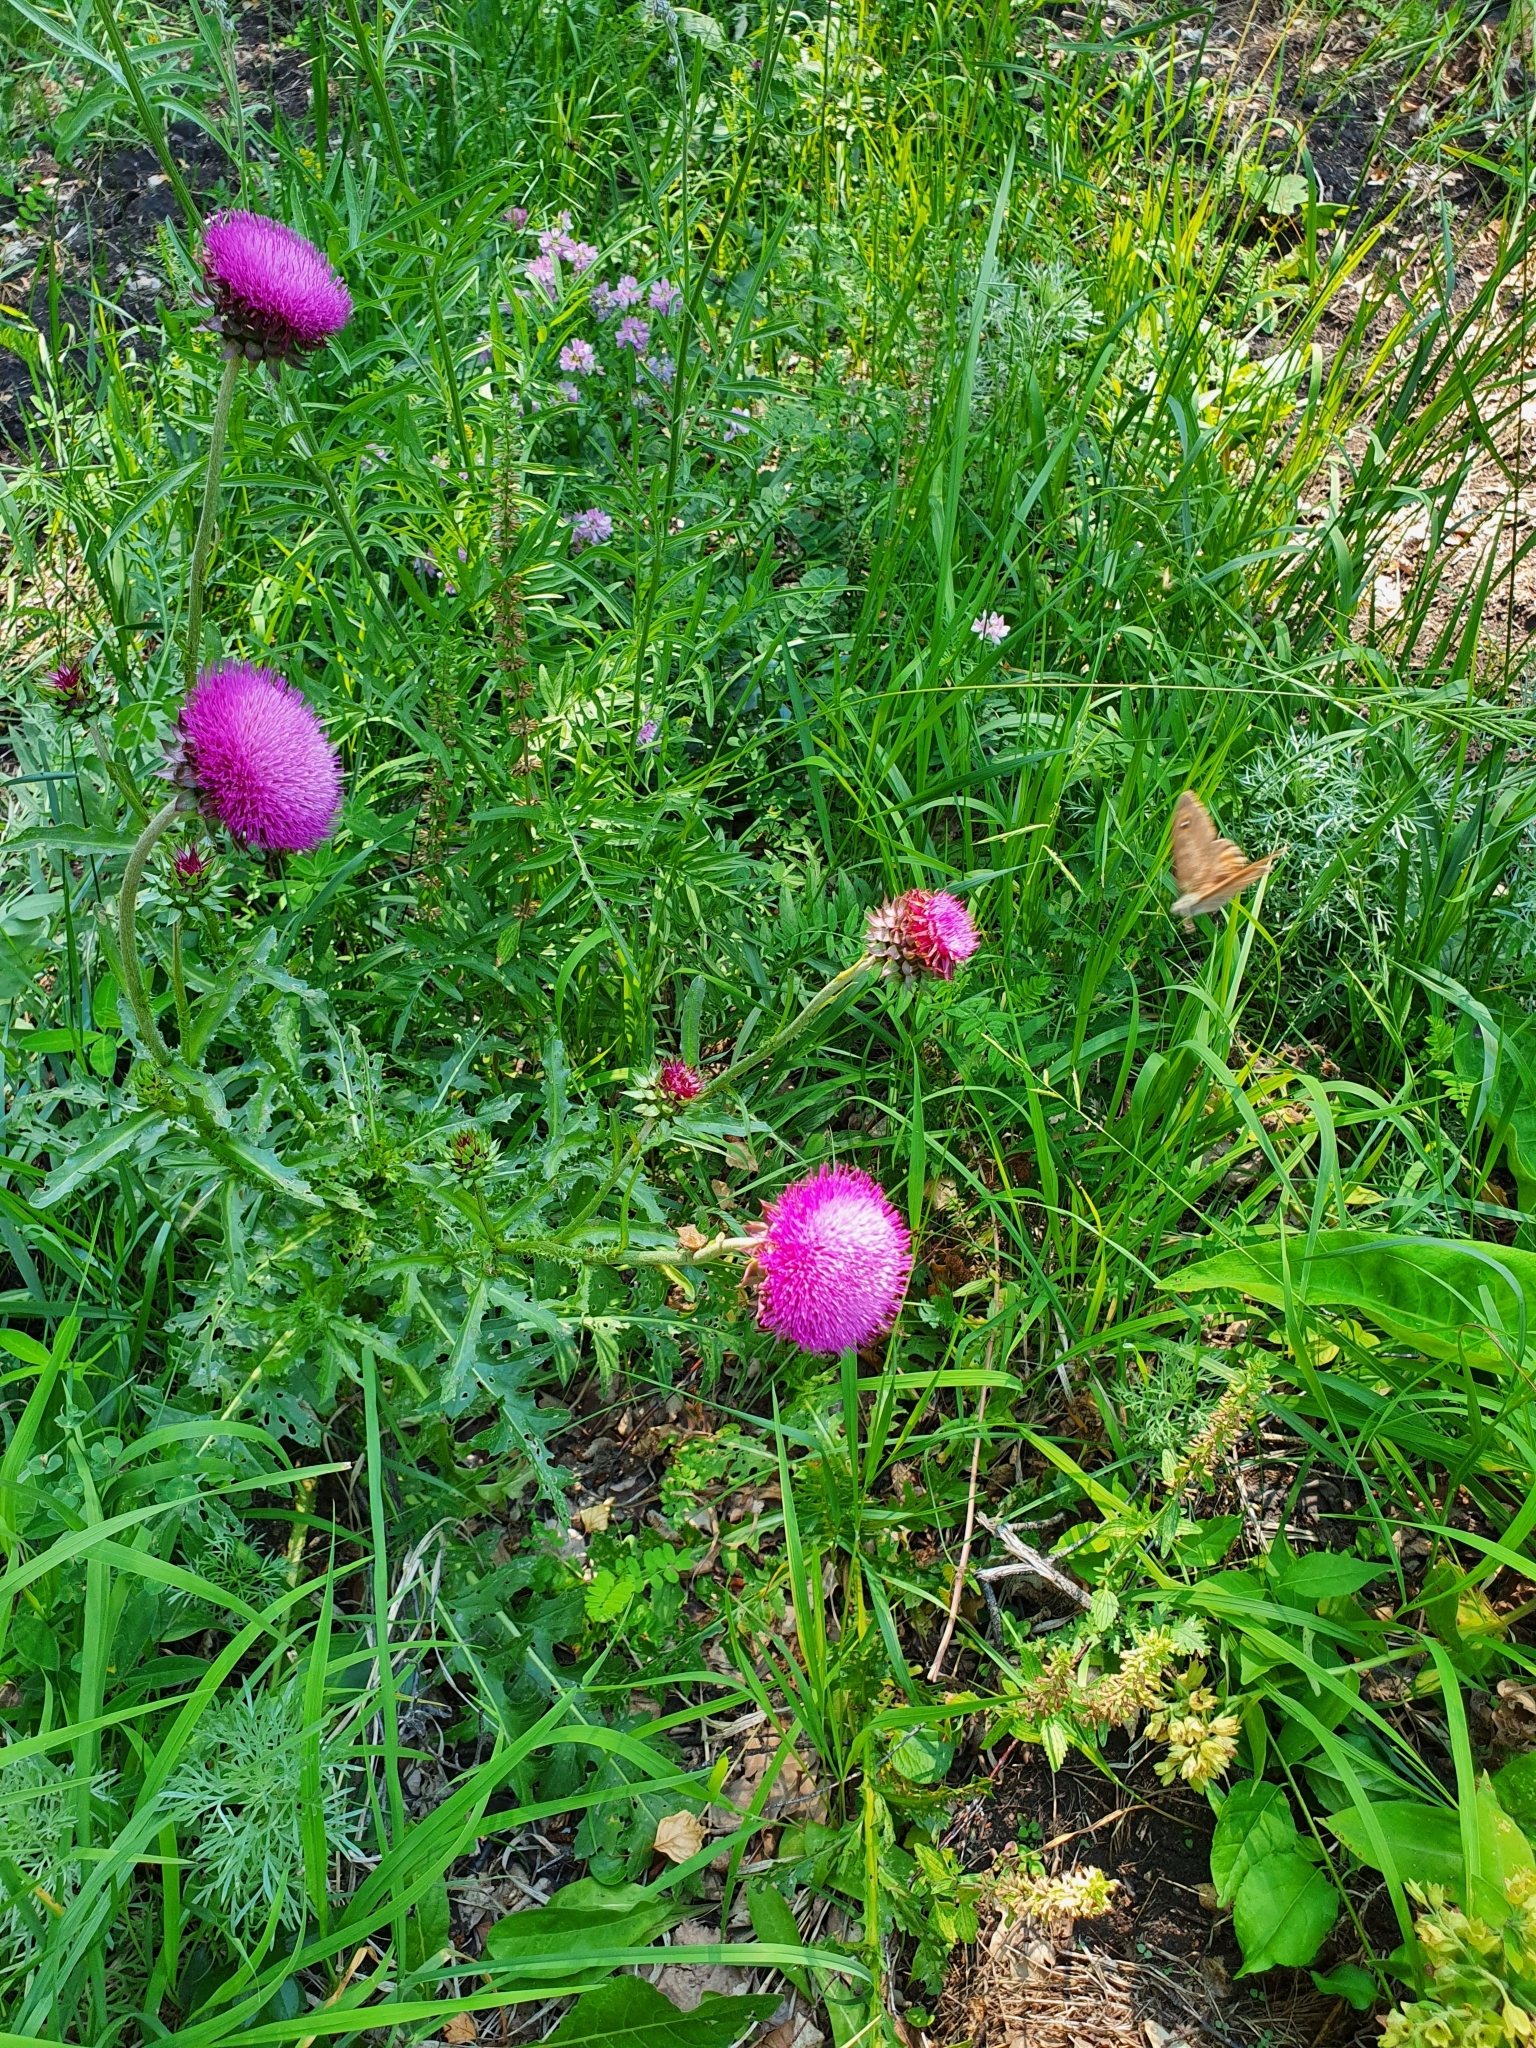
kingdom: Plantae
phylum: Tracheophyta
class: Magnoliopsida
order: Asterales
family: Asteraceae
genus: Carduus
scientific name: Carduus nutans
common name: Musk thistle
